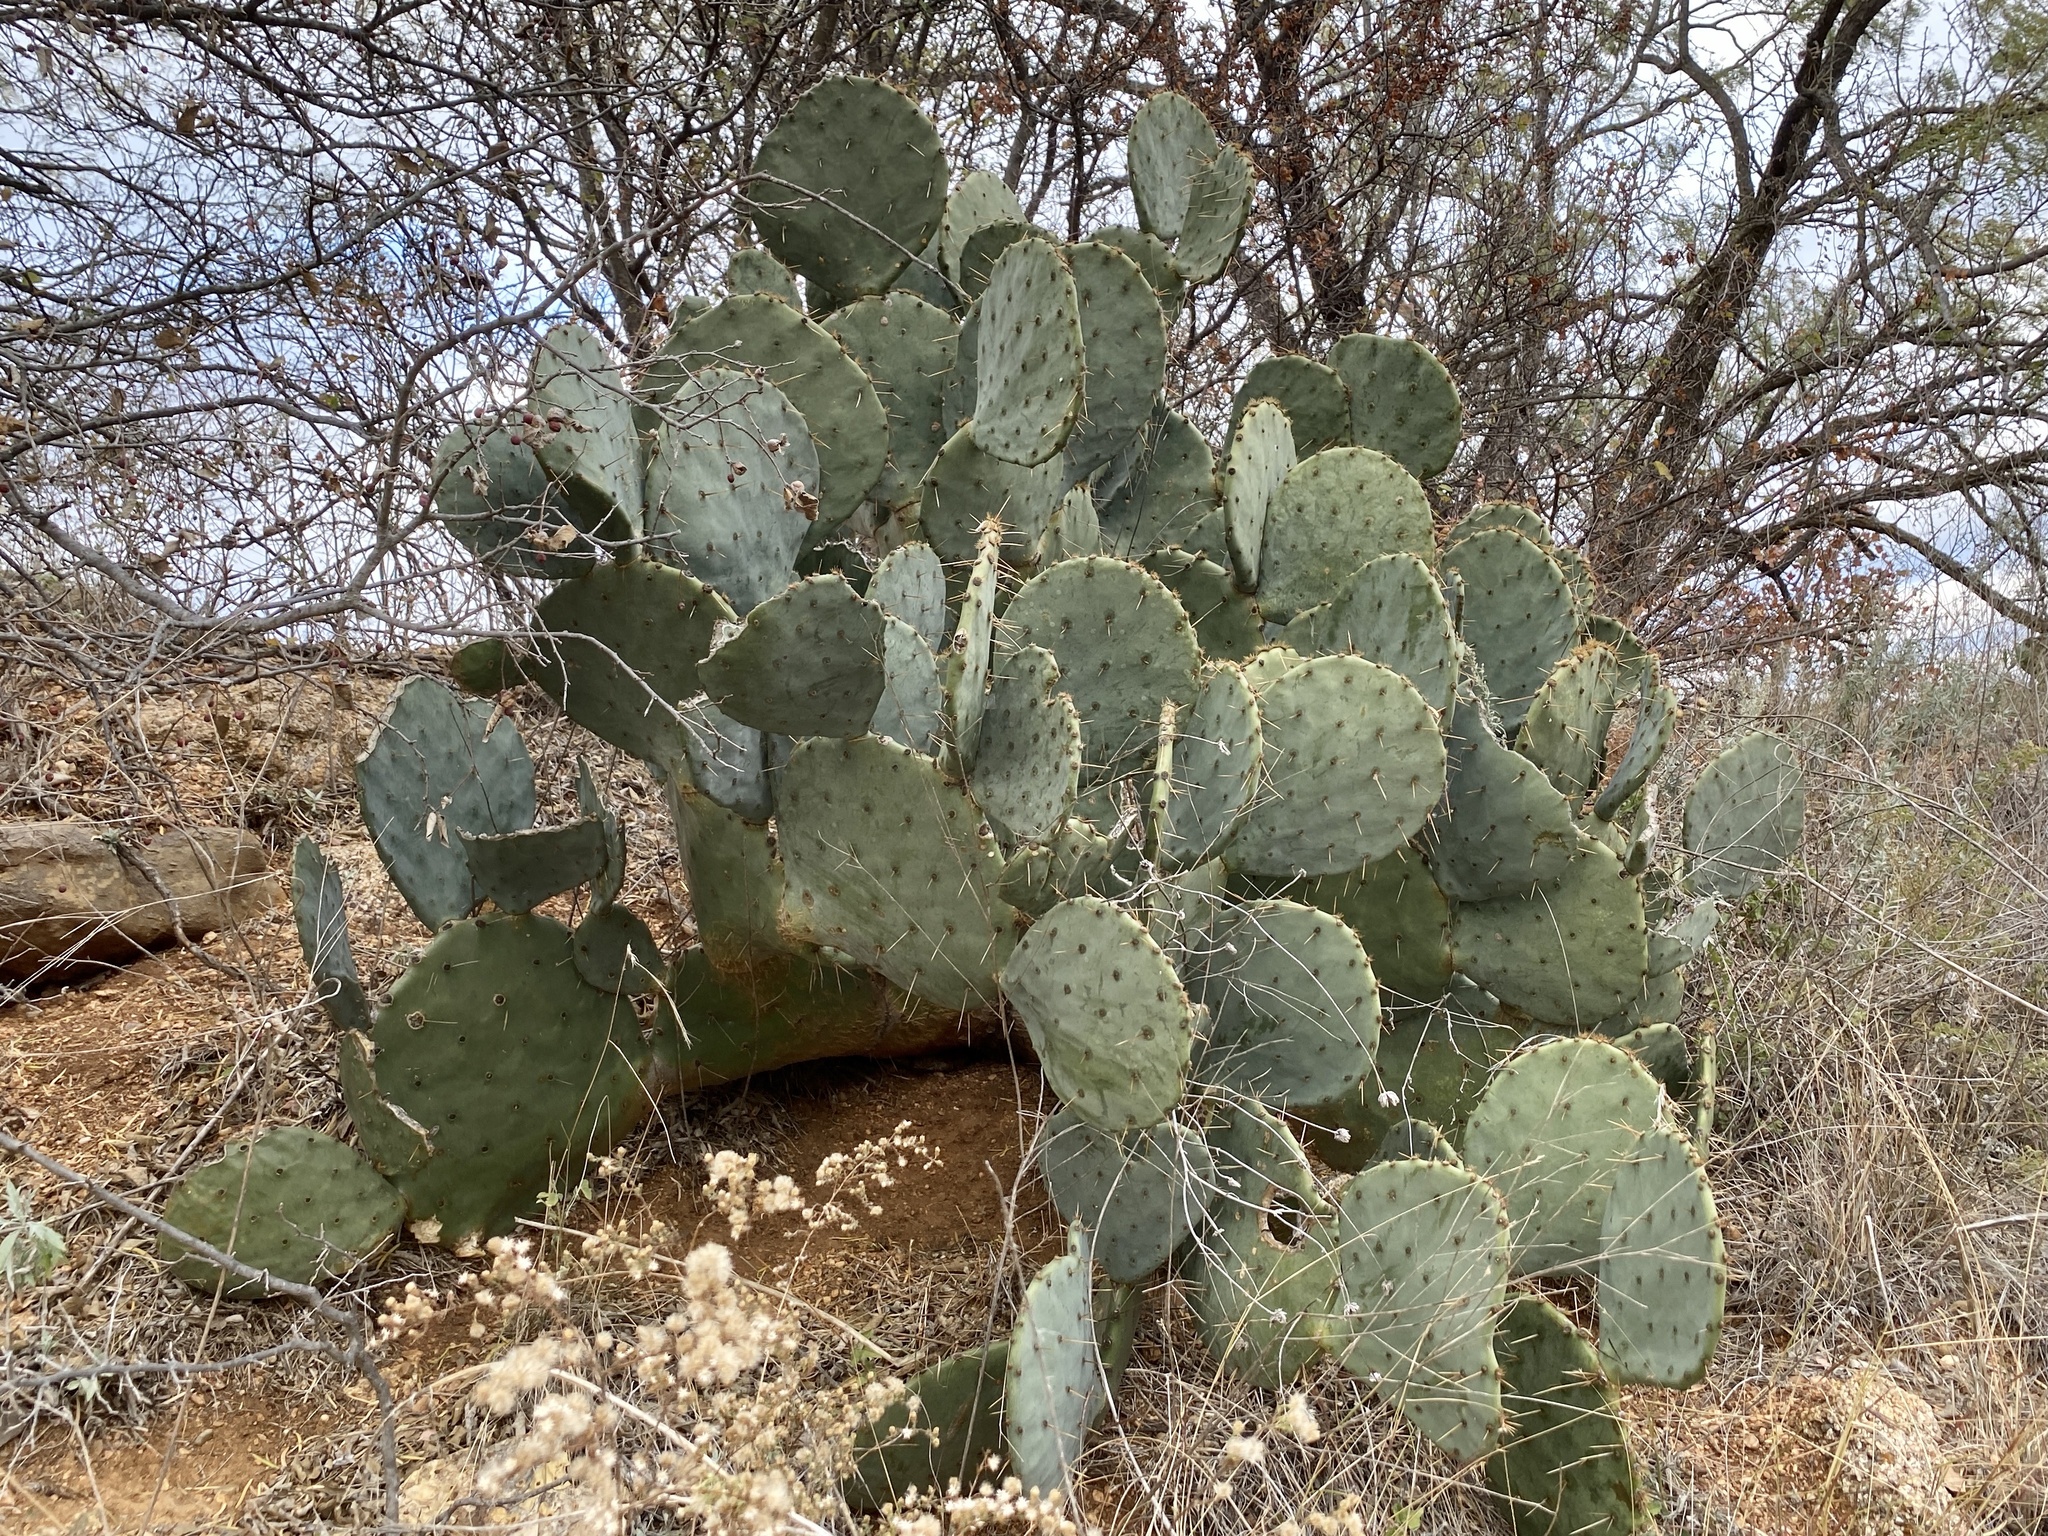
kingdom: Plantae
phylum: Tracheophyta
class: Magnoliopsida
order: Caryophyllales
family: Cactaceae
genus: Opuntia
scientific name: Opuntia engelmannii
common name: Cactus-apple
